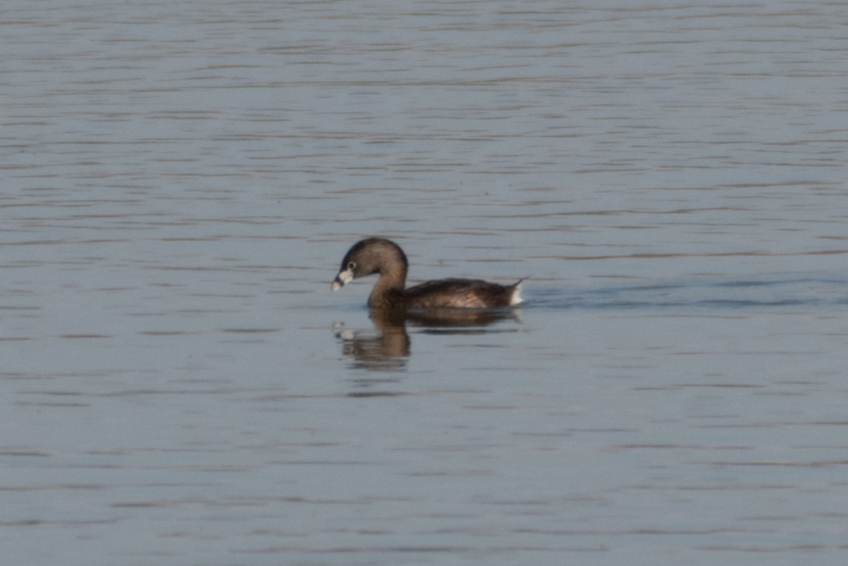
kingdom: Animalia
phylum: Chordata
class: Aves
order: Podicipediformes
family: Podicipedidae
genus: Podilymbus
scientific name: Podilymbus podiceps
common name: Pied-billed grebe
